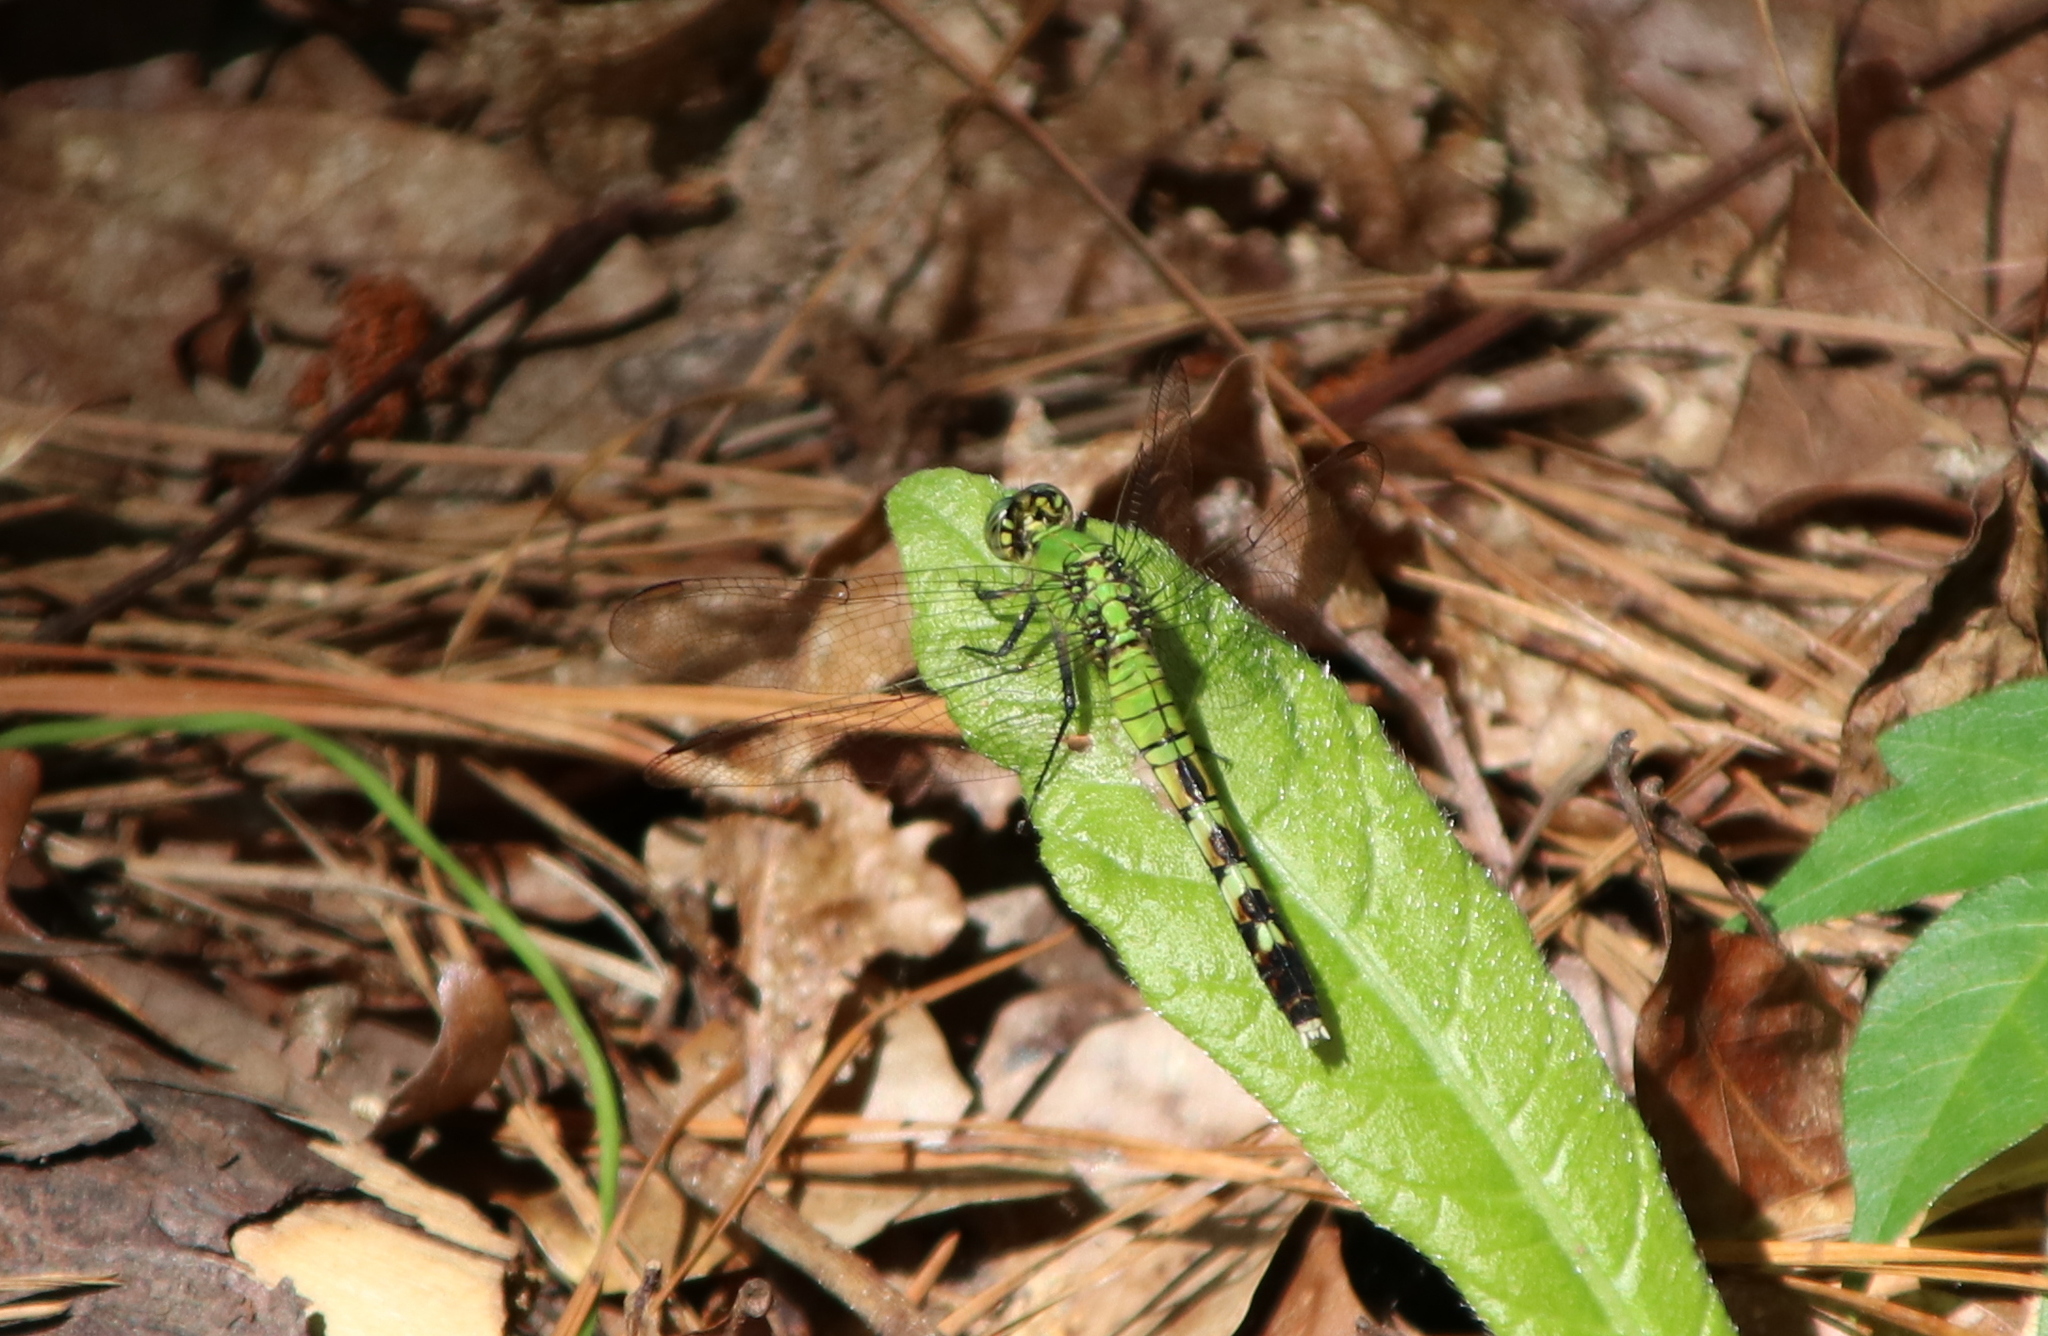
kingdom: Animalia
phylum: Arthropoda
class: Insecta
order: Odonata
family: Libellulidae
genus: Erythemis
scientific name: Erythemis simplicicollis
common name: Eastern pondhawk
